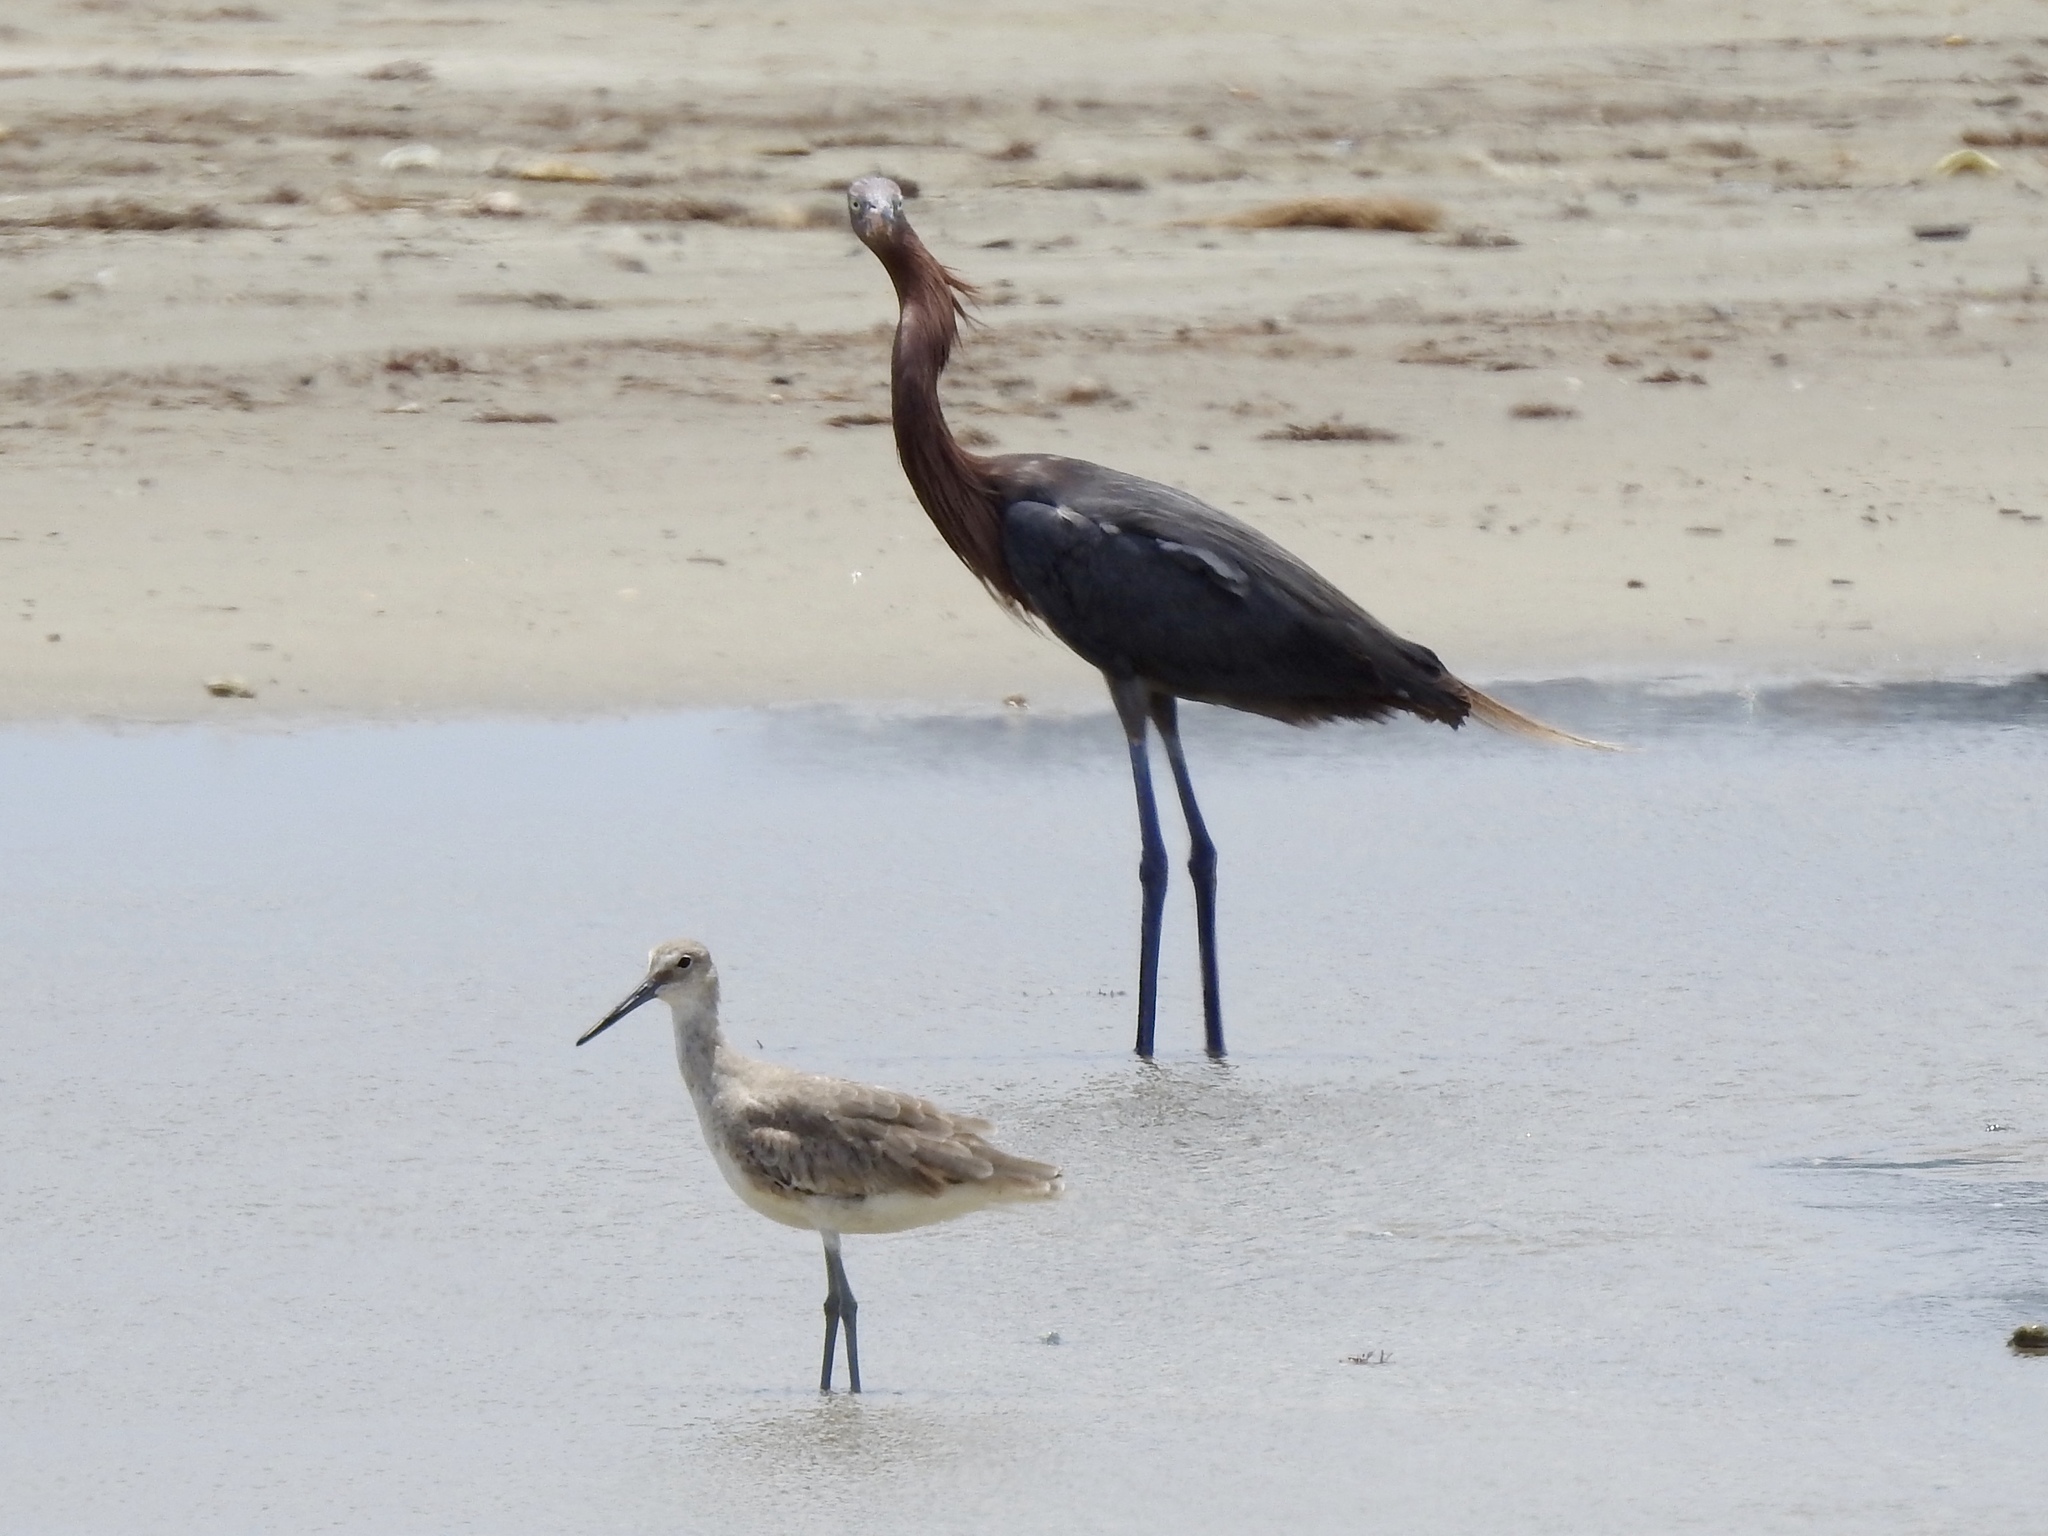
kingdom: Animalia
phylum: Chordata
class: Aves
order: Charadriiformes
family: Scolopacidae
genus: Tringa
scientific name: Tringa semipalmata
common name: Willet
